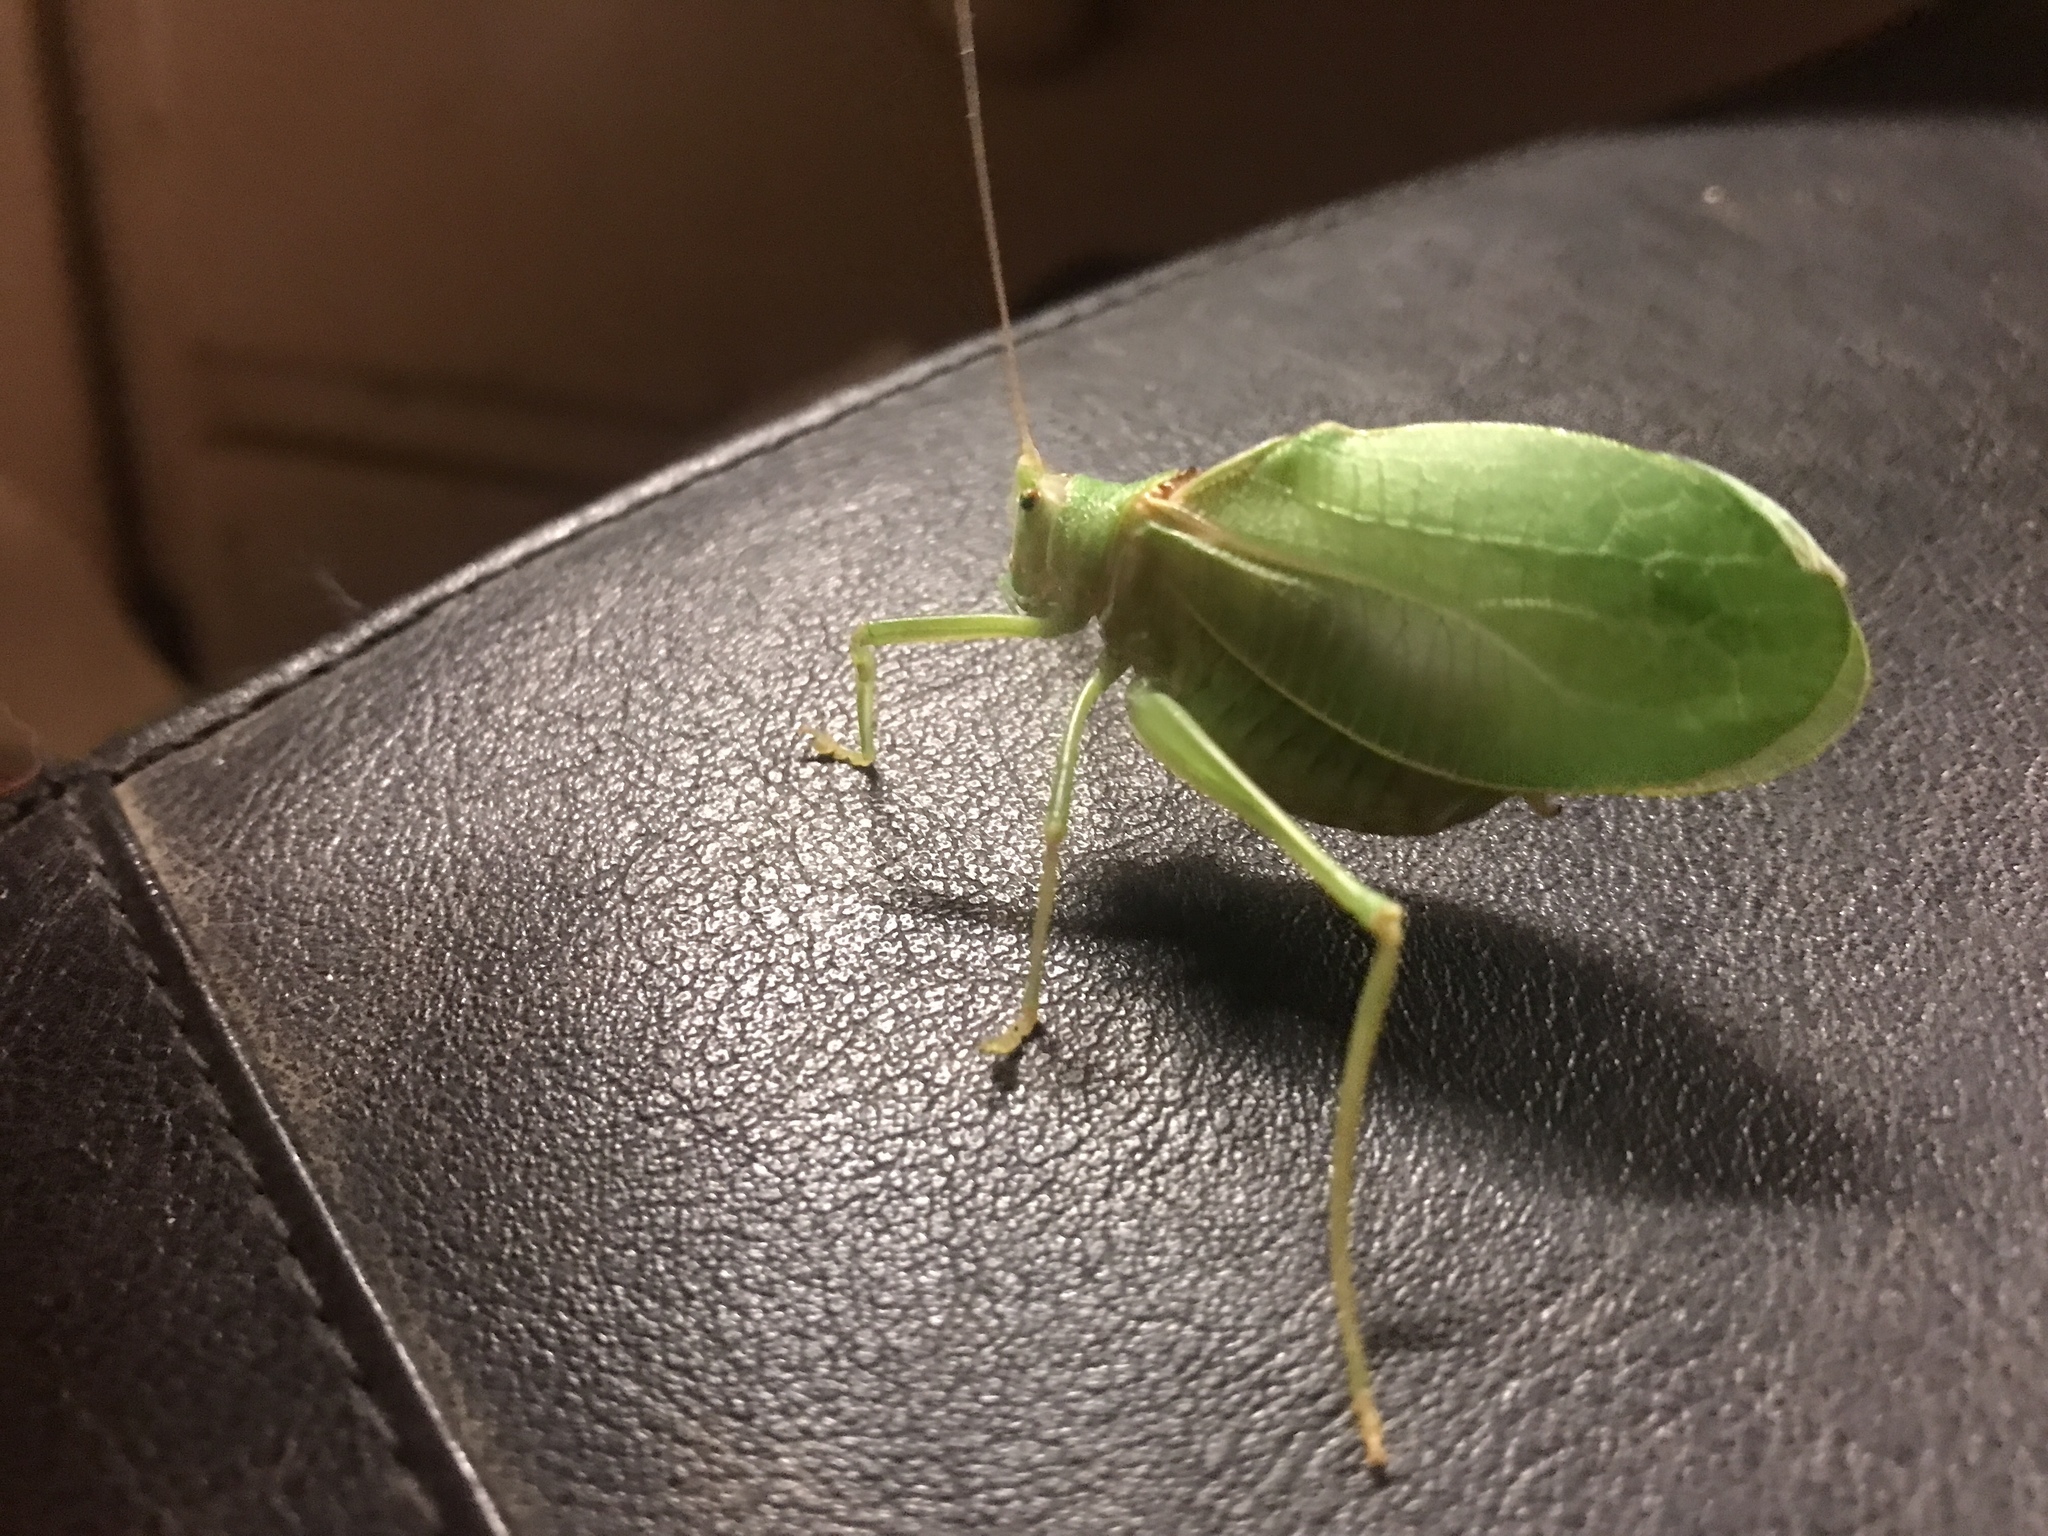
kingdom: Animalia
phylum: Arthropoda
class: Insecta
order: Orthoptera
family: Tettigoniidae
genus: Pterophylla
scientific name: Pterophylla camellifolia
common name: Common true katydid
